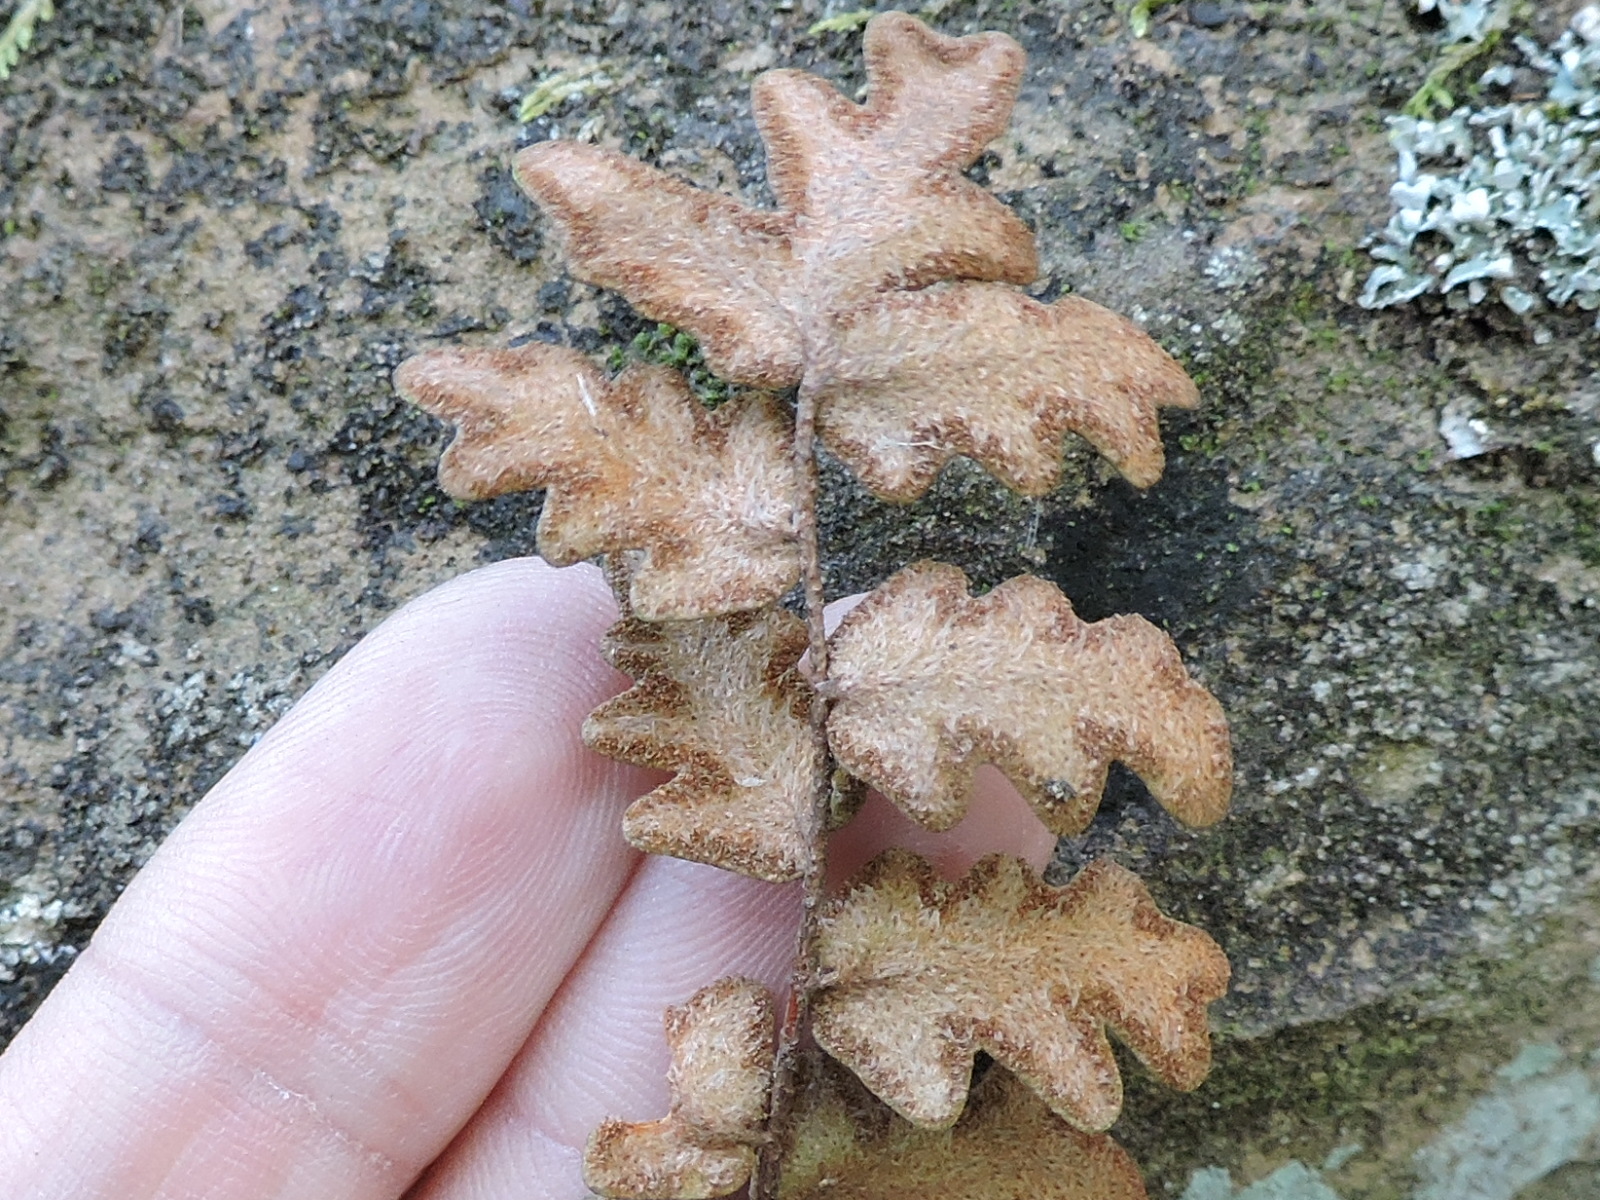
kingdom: Plantae
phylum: Tracheophyta
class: Polypodiopsida
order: Polypodiales
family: Pteridaceae
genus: Astrolepis
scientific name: Astrolepis sinuata
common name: Wavy scaly cloakfern
